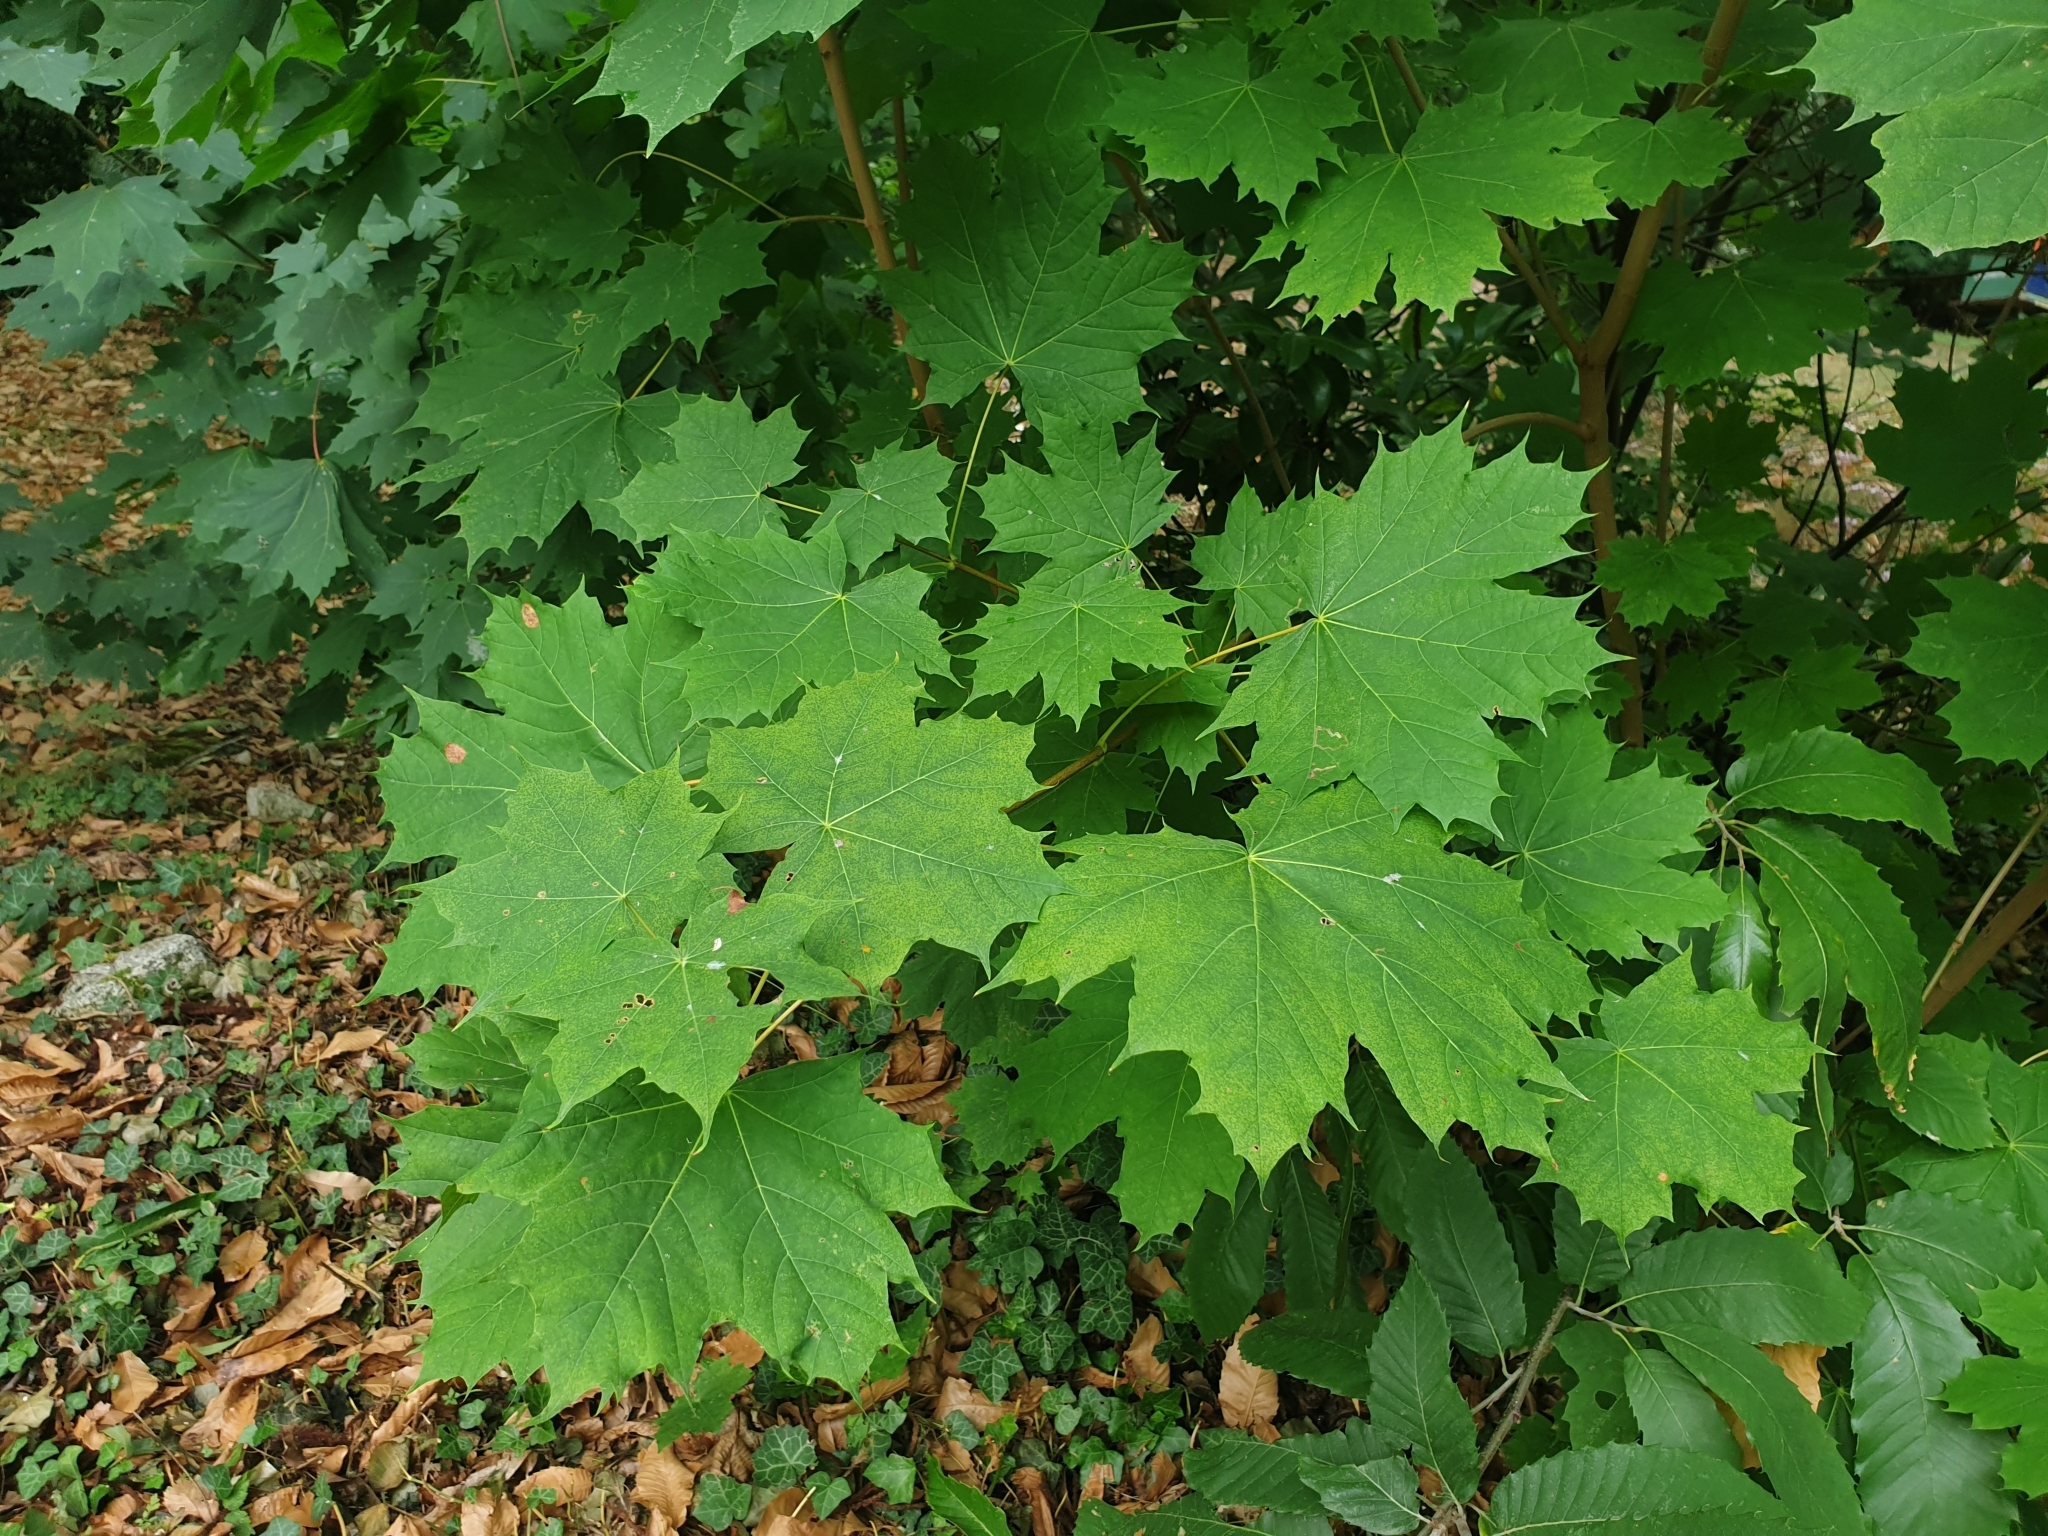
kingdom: Plantae
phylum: Tracheophyta
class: Magnoliopsida
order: Sapindales
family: Sapindaceae
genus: Acer
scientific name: Acer platanoides
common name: Norway maple
